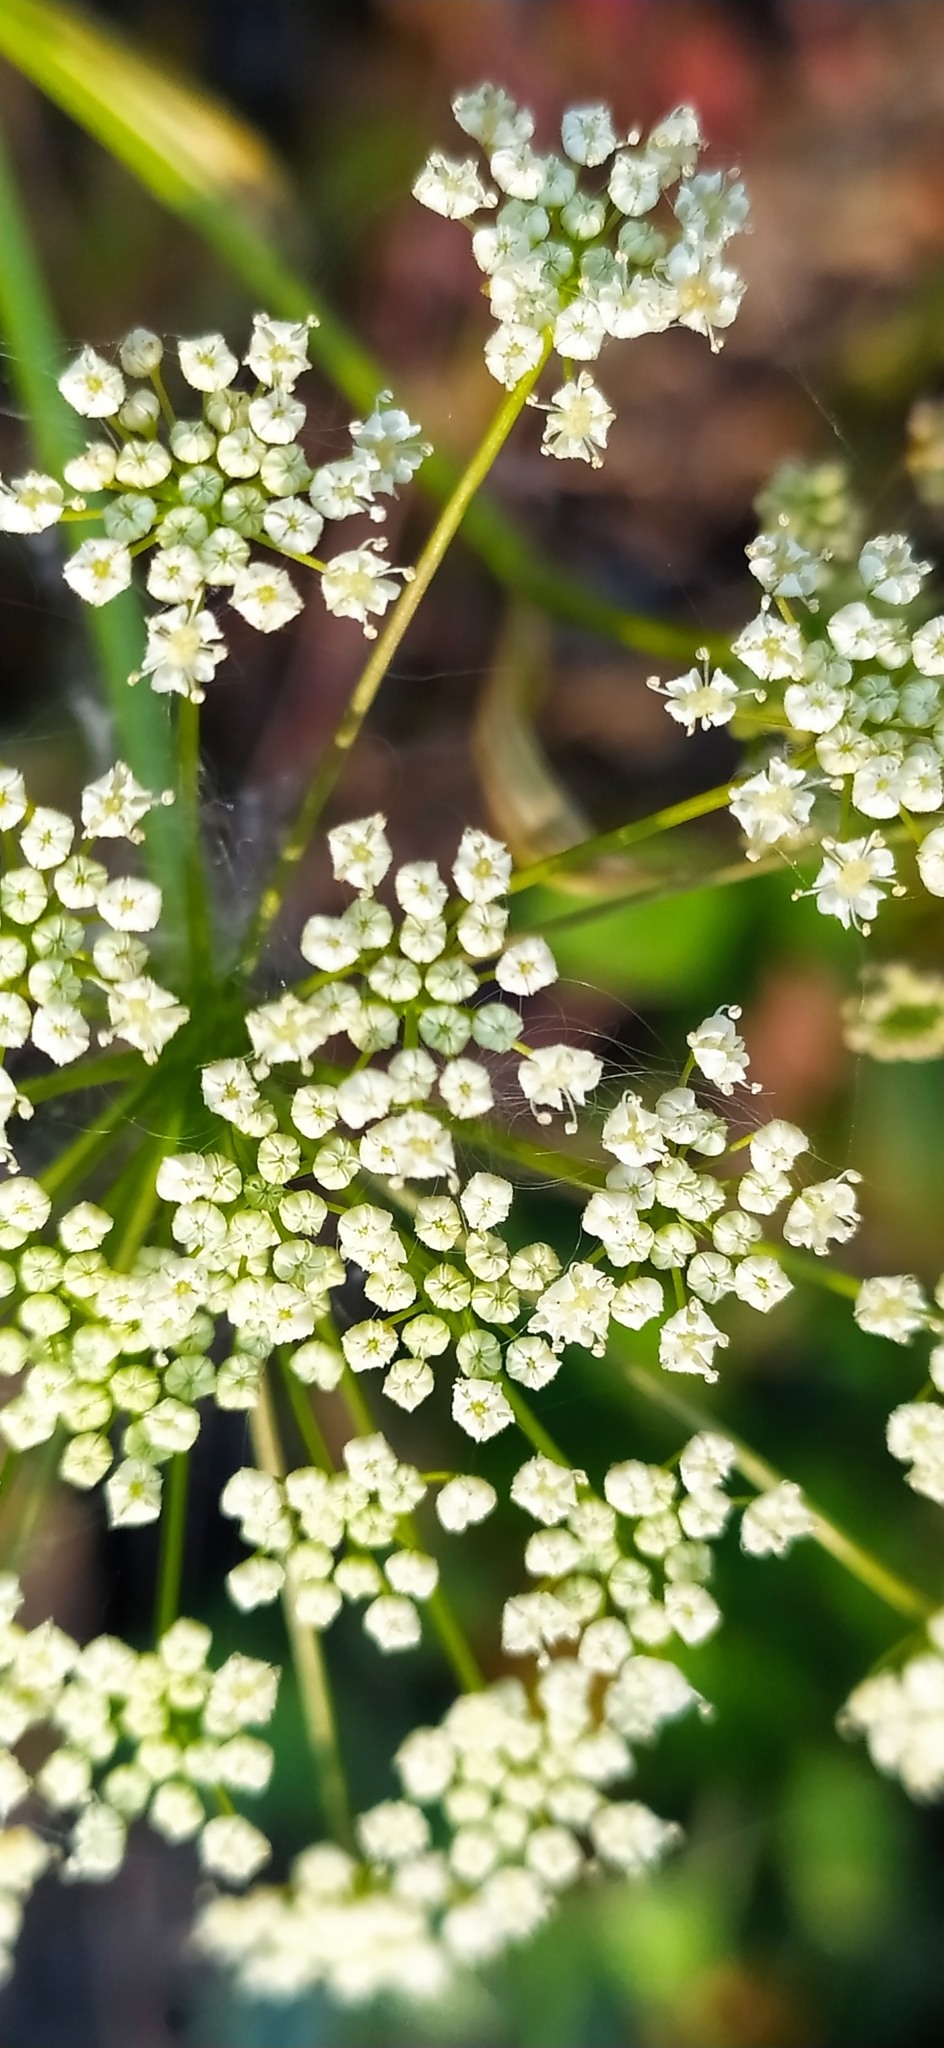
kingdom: Plantae
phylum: Tracheophyta
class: Magnoliopsida
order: Apiales
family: Apiaceae
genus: Pimpinella
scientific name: Pimpinella saxifraga
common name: Burnet-saxifrage
